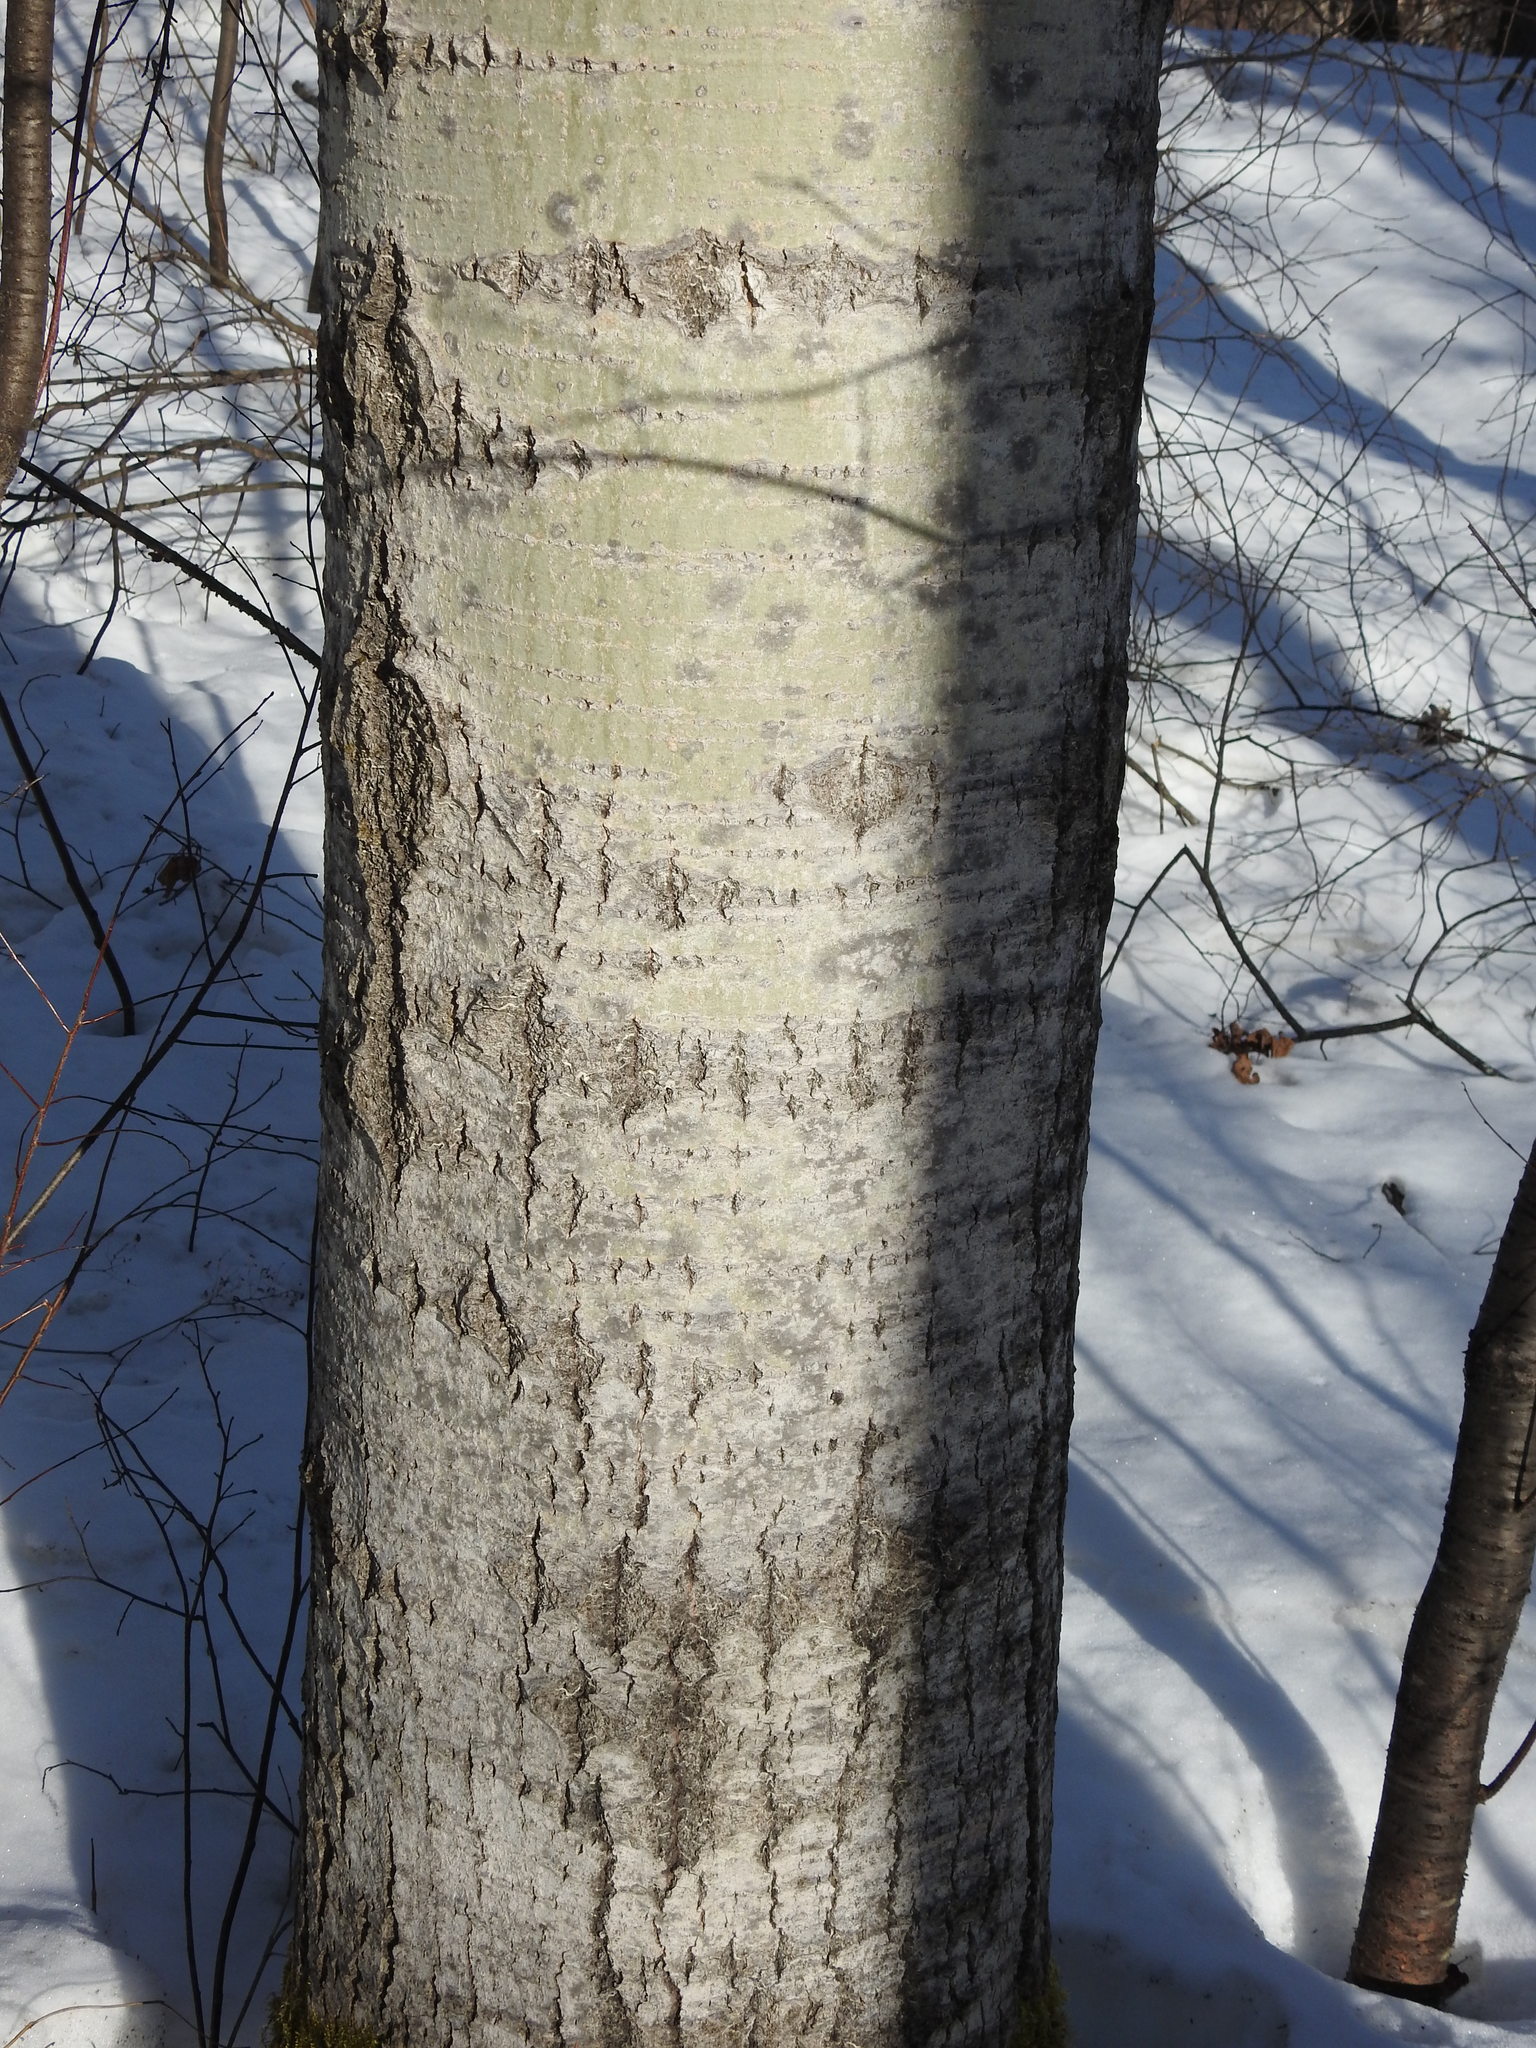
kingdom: Plantae
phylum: Tracheophyta
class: Magnoliopsida
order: Malpighiales
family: Salicaceae
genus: Populus
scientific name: Populus tremuloides
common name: Quaking aspen
